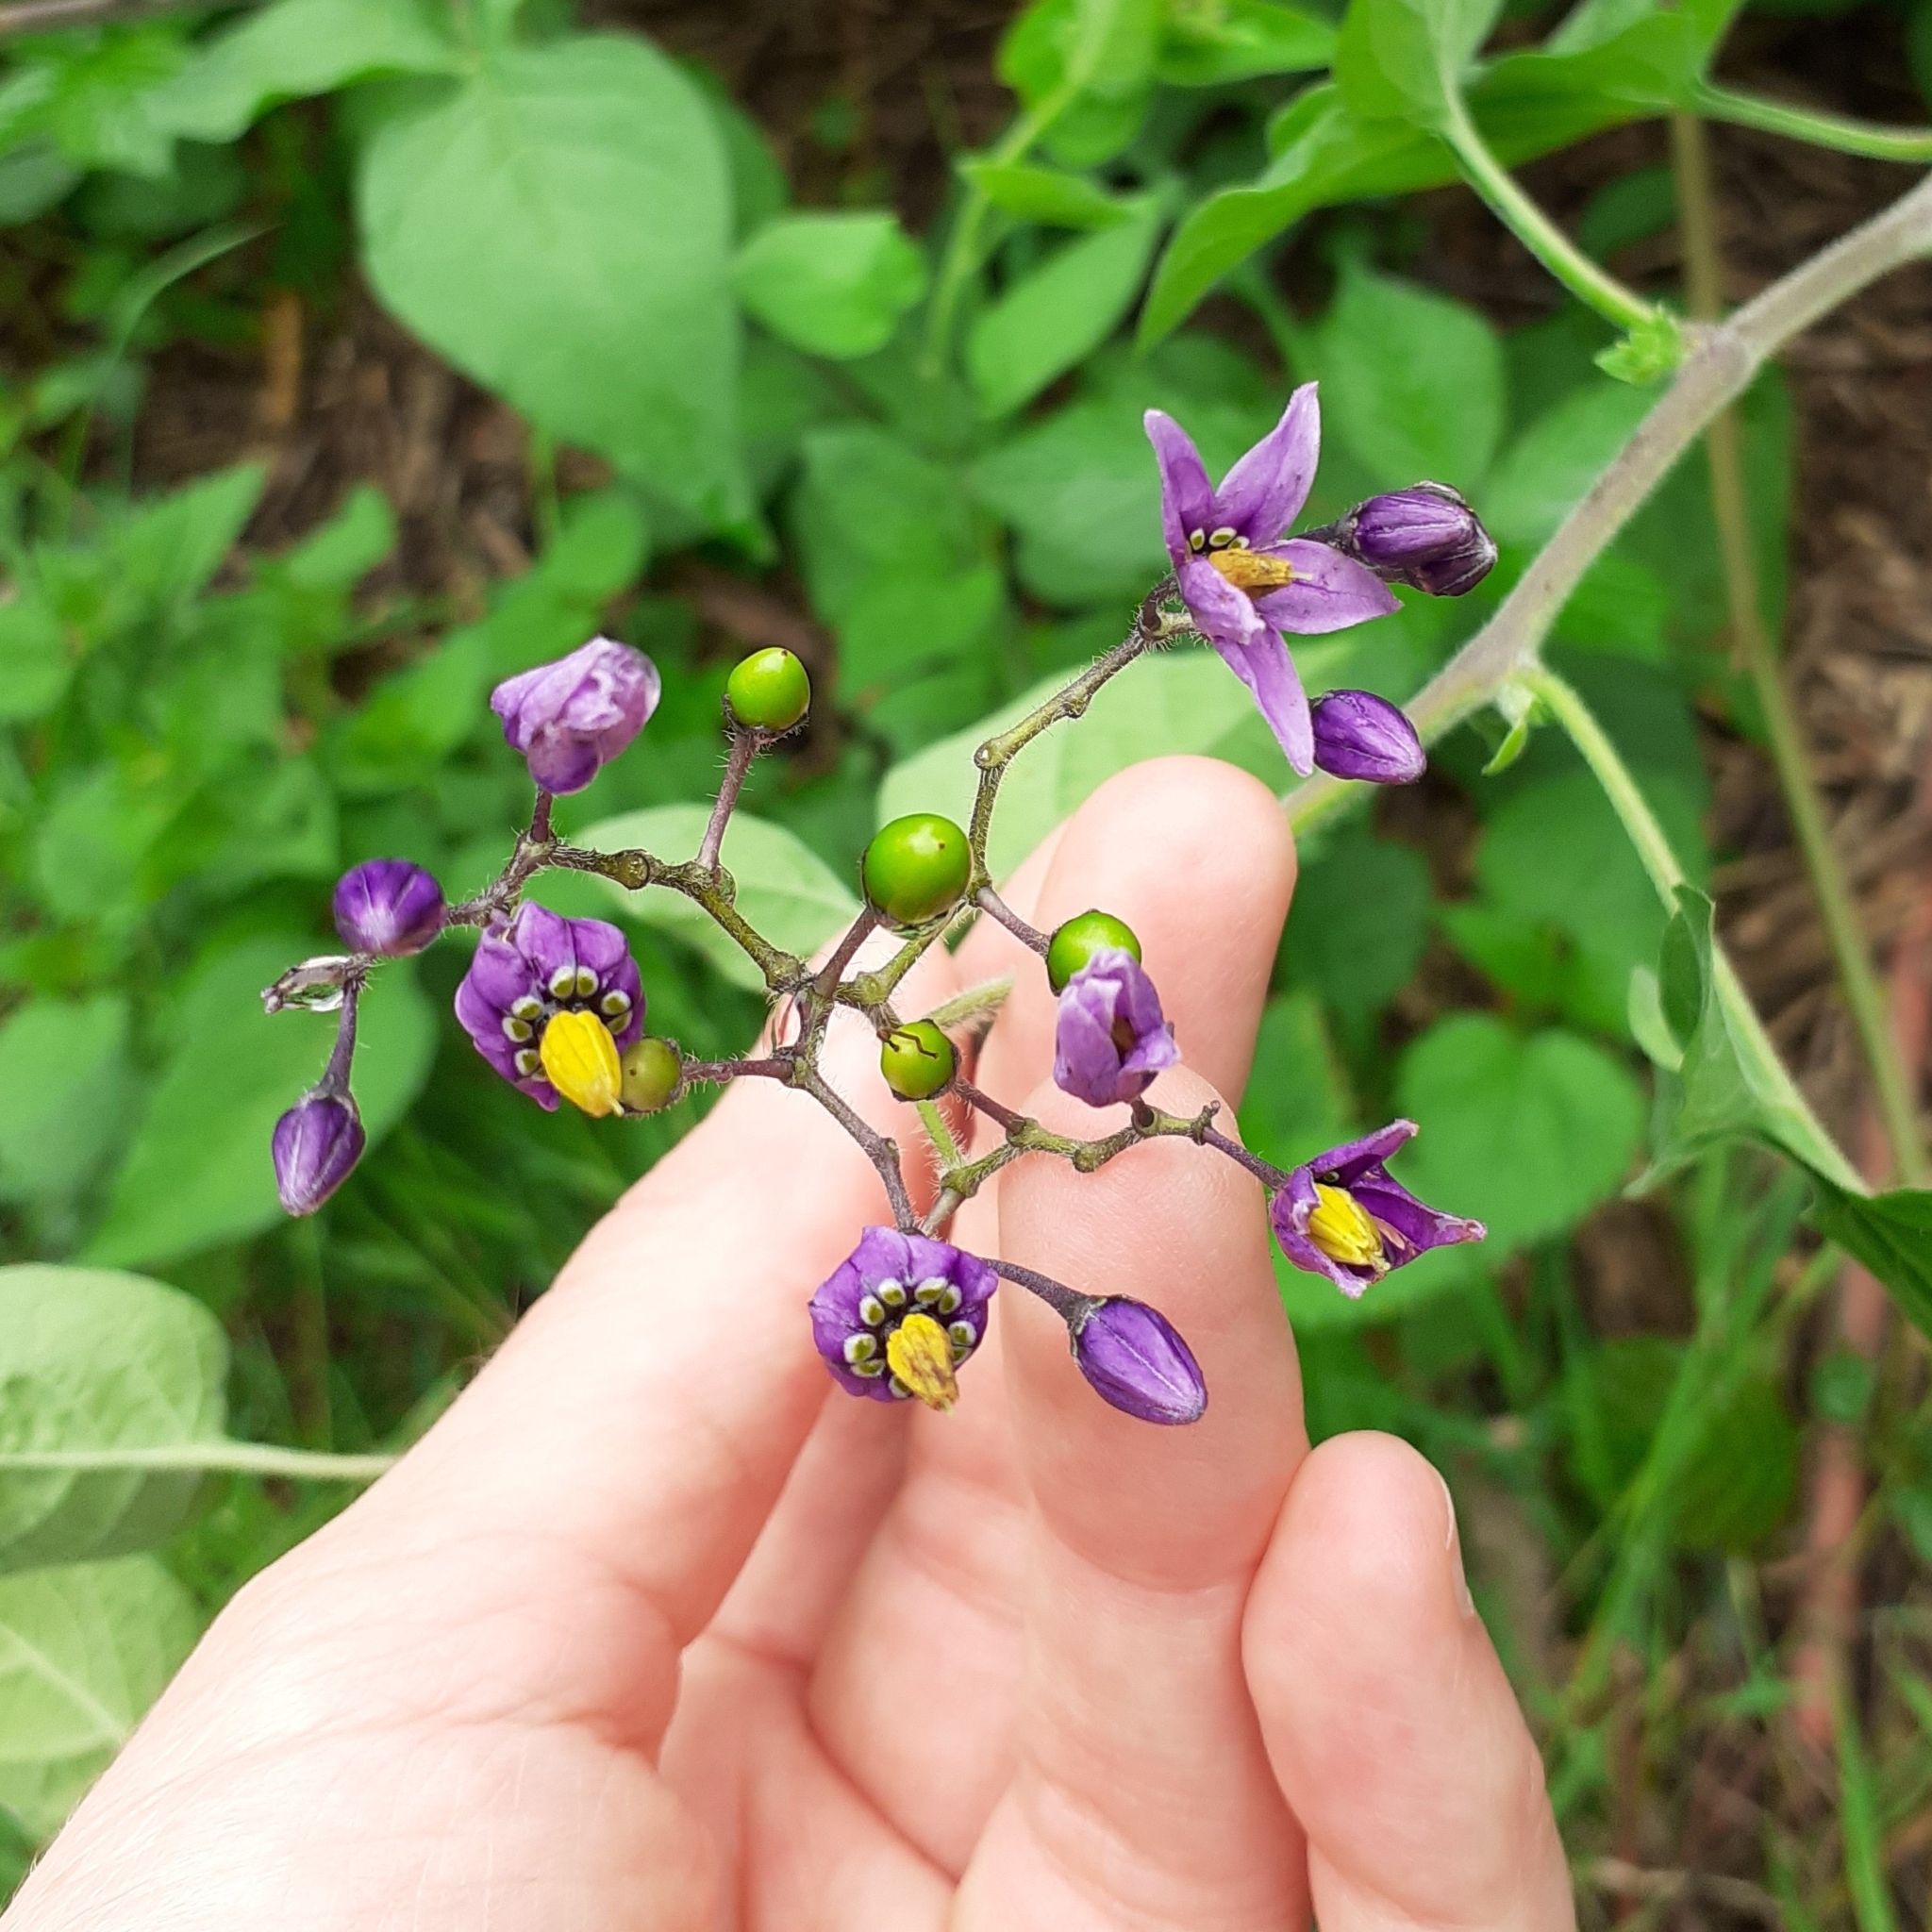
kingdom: Plantae
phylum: Tracheophyta
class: Magnoliopsida
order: Solanales
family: Solanaceae
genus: Solanum
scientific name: Solanum dulcamara
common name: Climbing nightshade
